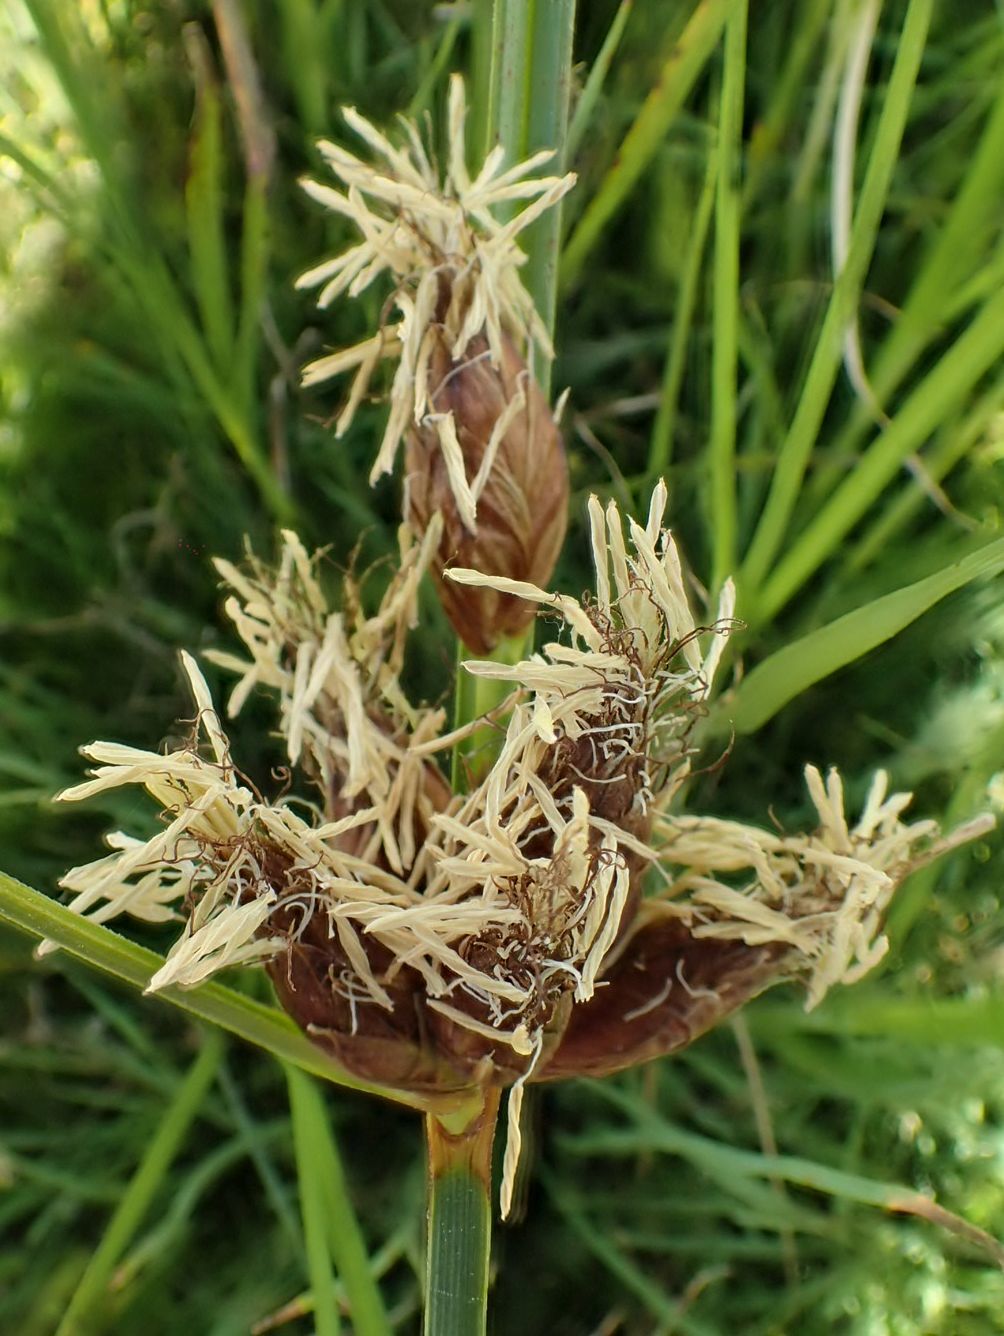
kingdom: Plantae
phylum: Tracheophyta
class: Liliopsida
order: Poales
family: Cyperaceae
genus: Bolboschoenus
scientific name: Bolboschoenus caldwellii
